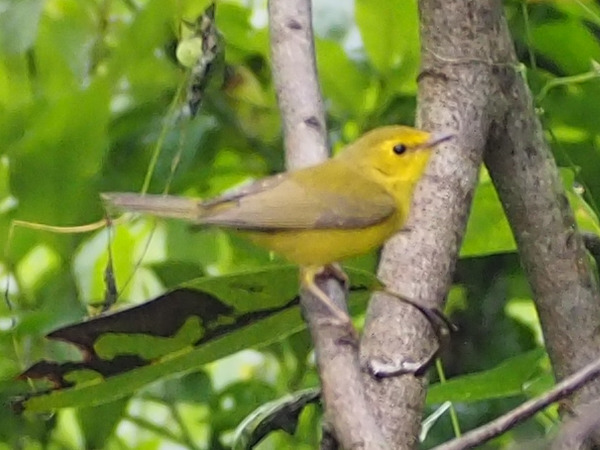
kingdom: Animalia
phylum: Chordata
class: Aves
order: Passeriformes
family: Parulidae
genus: Setophaga
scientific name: Setophaga citrina
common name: Hooded warbler
